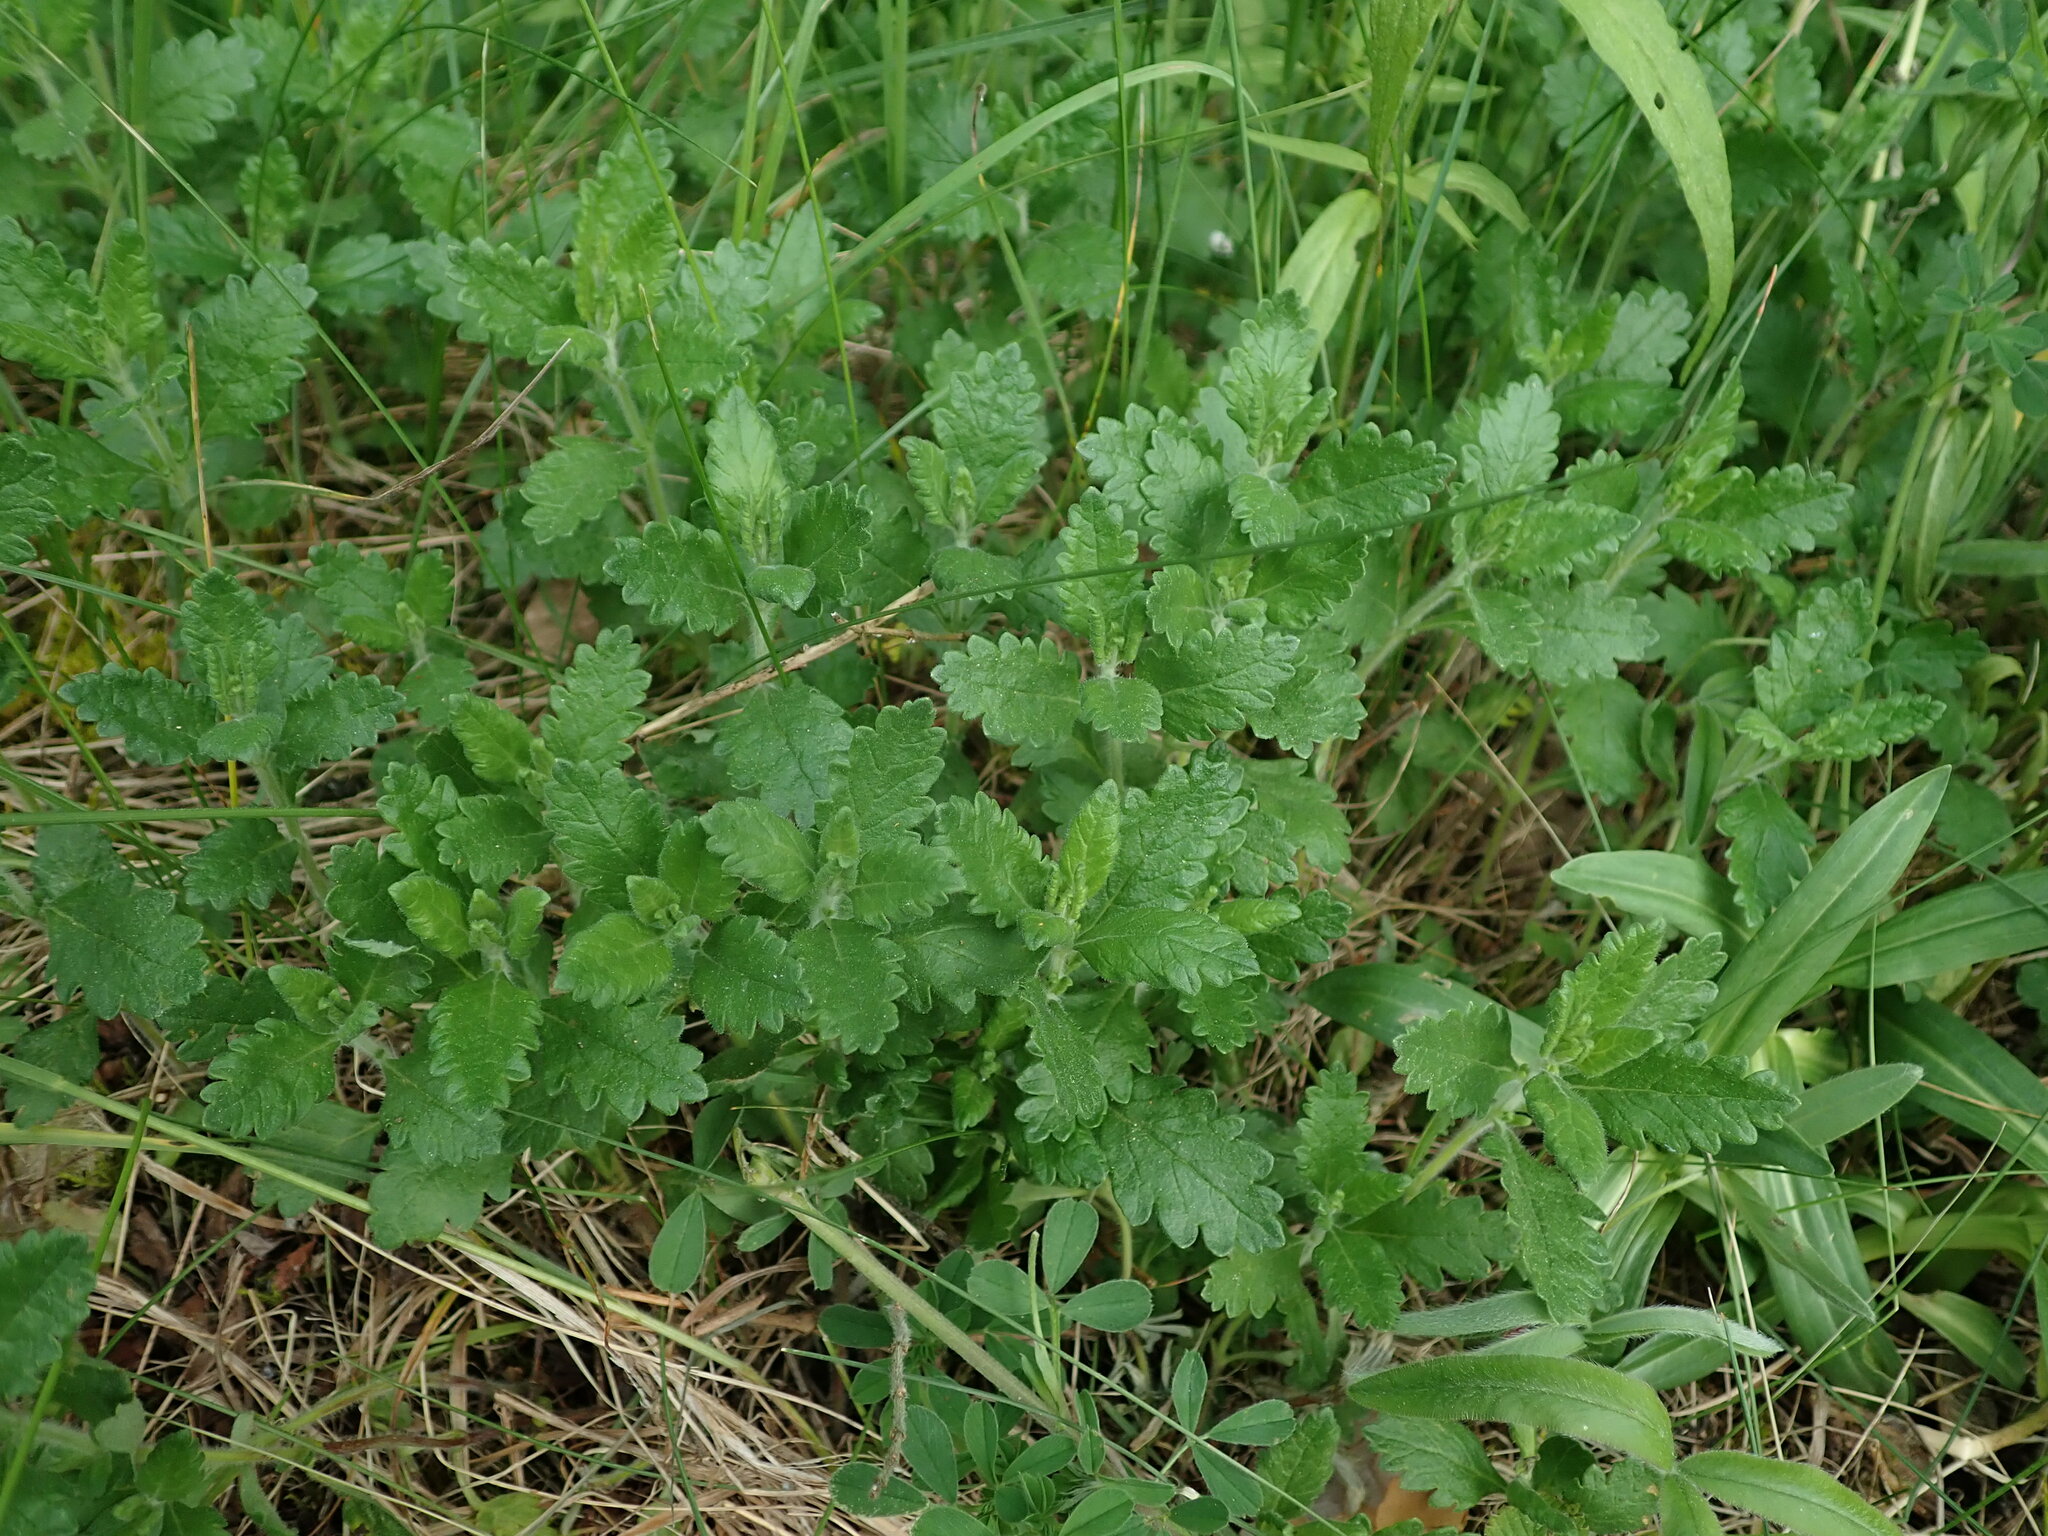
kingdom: Plantae
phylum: Tracheophyta
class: Magnoliopsida
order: Lamiales
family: Lamiaceae
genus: Teucrium
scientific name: Teucrium chamaedrys
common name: Wall germander
